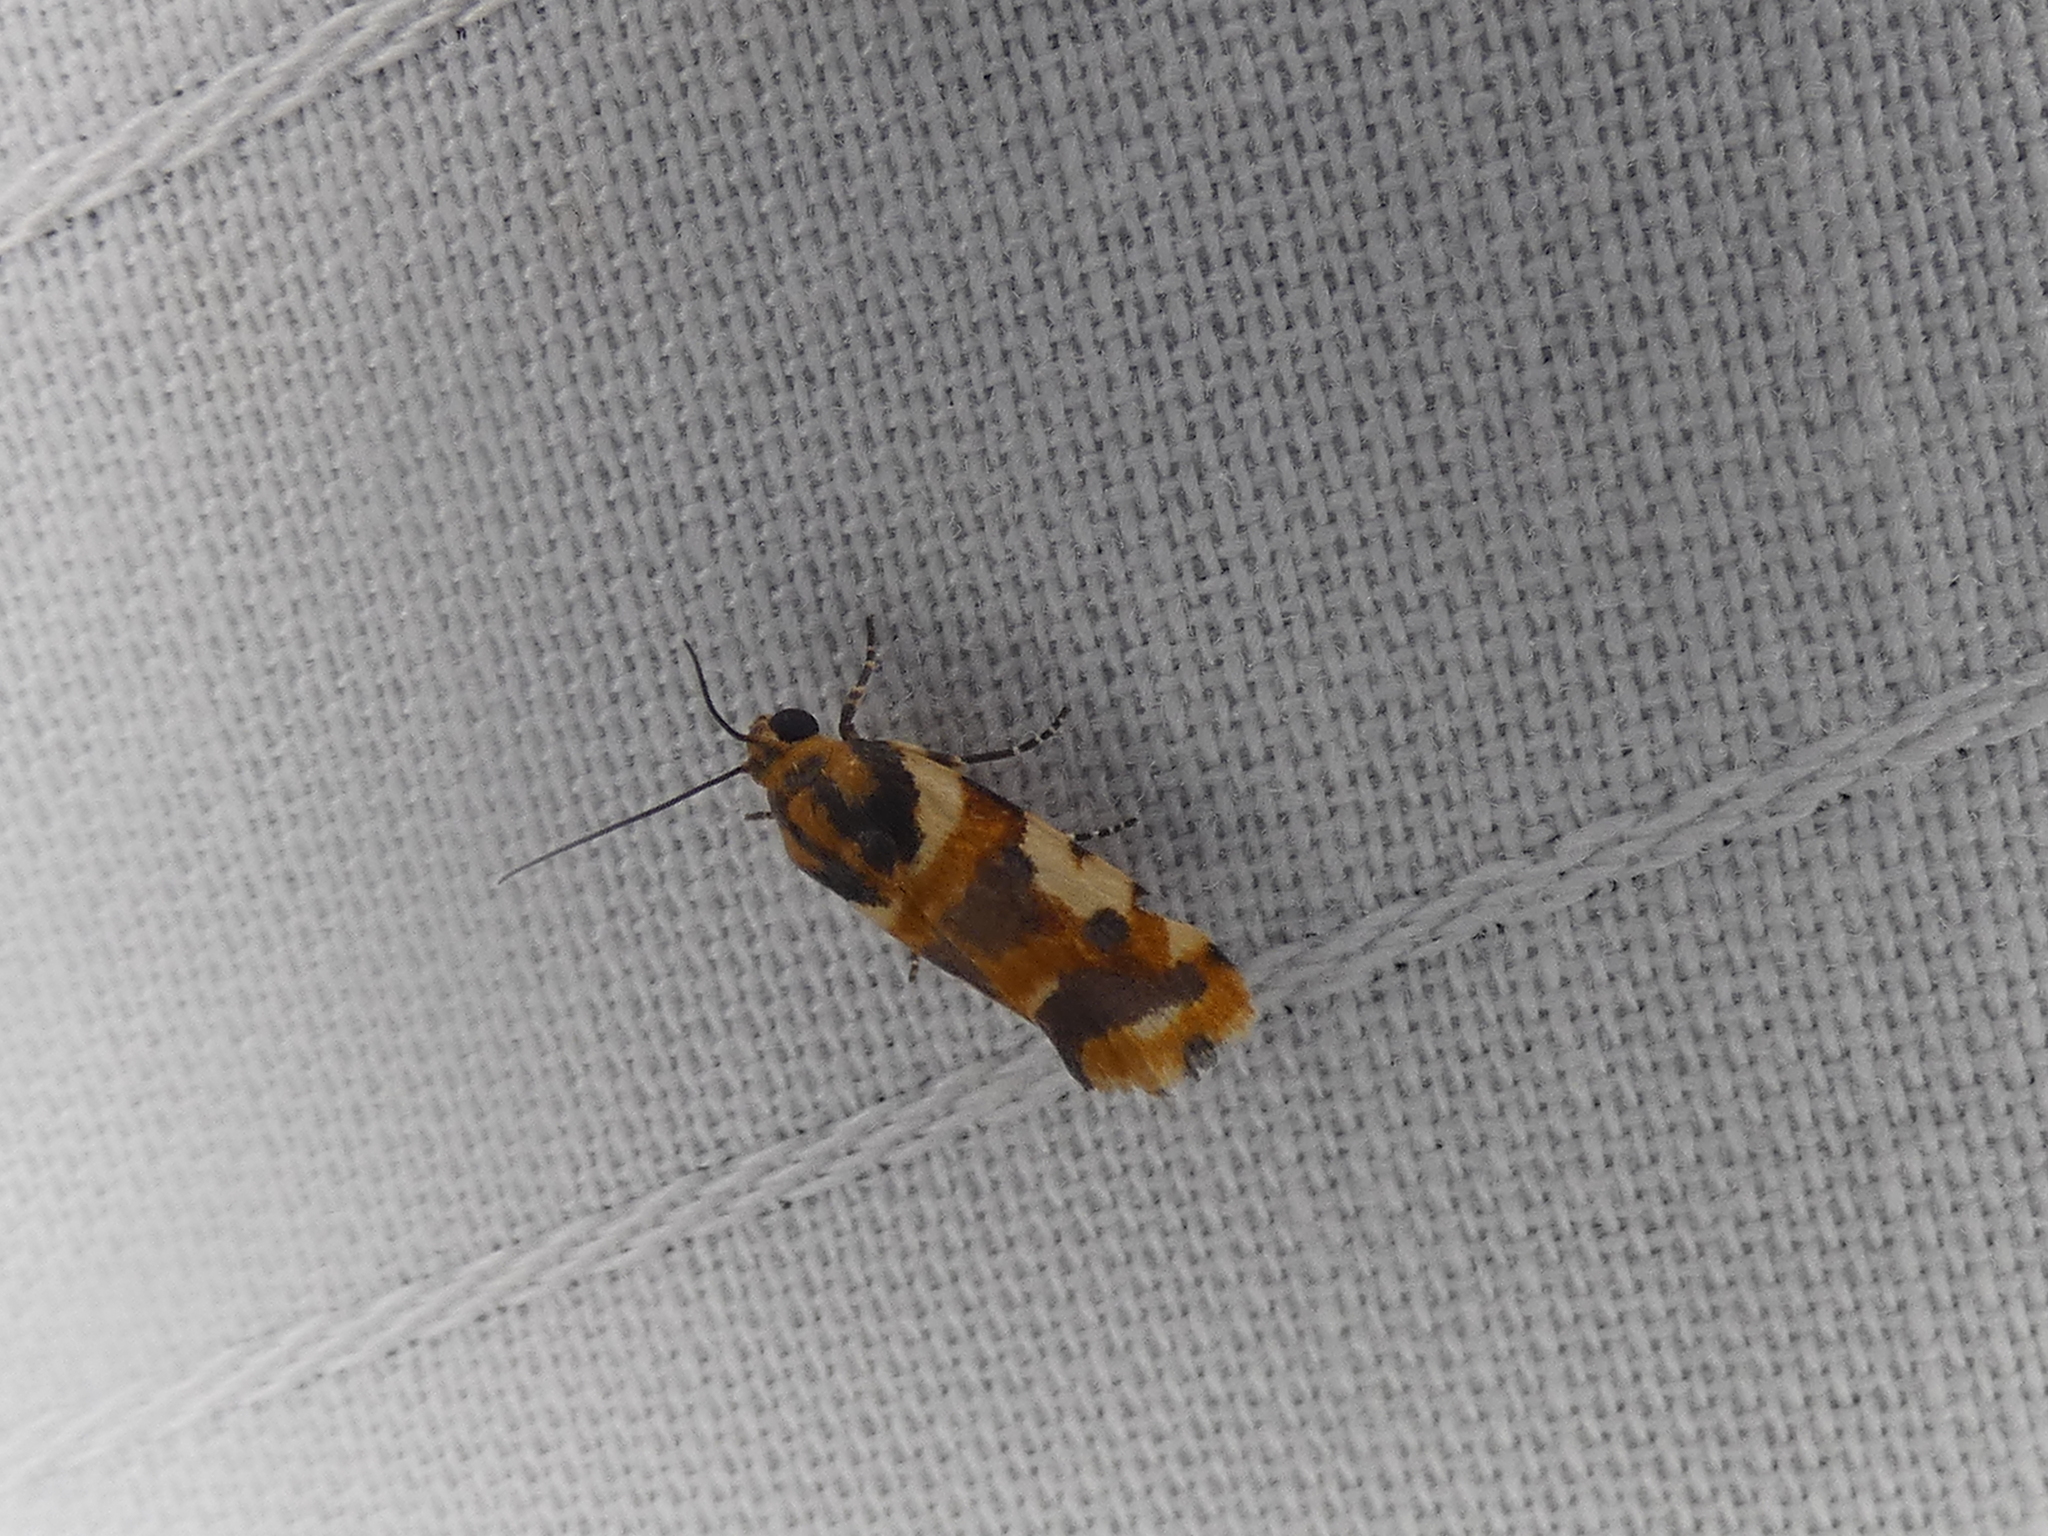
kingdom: Animalia
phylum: Arthropoda
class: Insecta
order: Lepidoptera
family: Noctuidae
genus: Acontia
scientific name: Acontia dama
